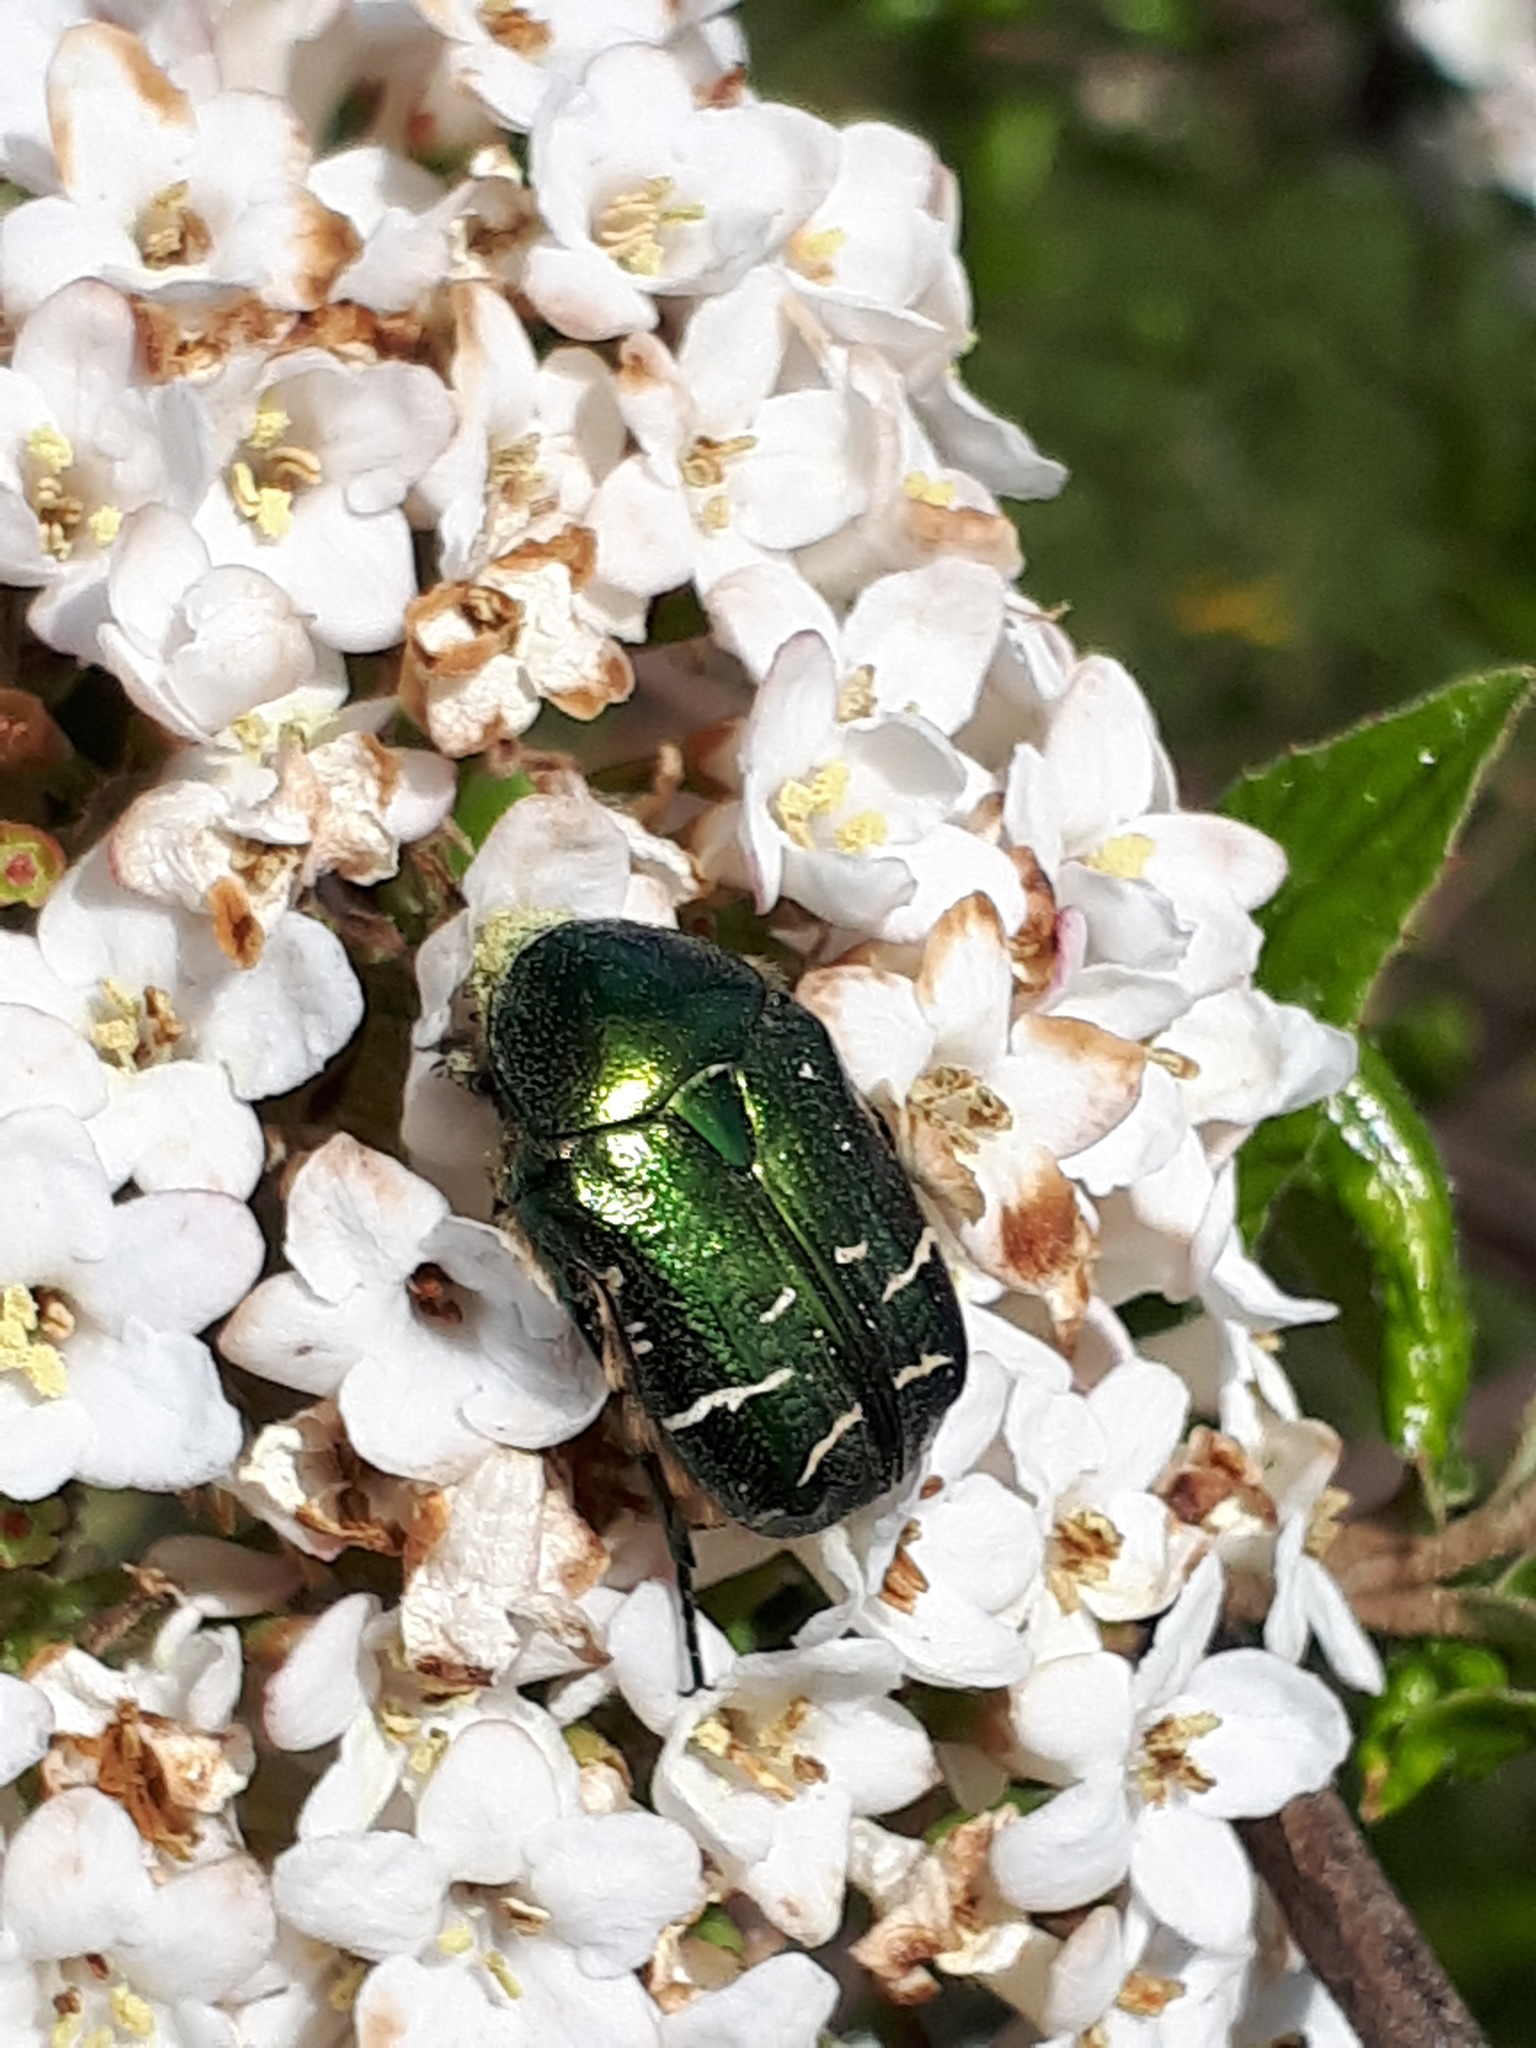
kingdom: Animalia
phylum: Arthropoda
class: Insecta
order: Coleoptera
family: Scarabaeidae
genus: Cetonia
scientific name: Cetonia aurata
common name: Rose chafer
